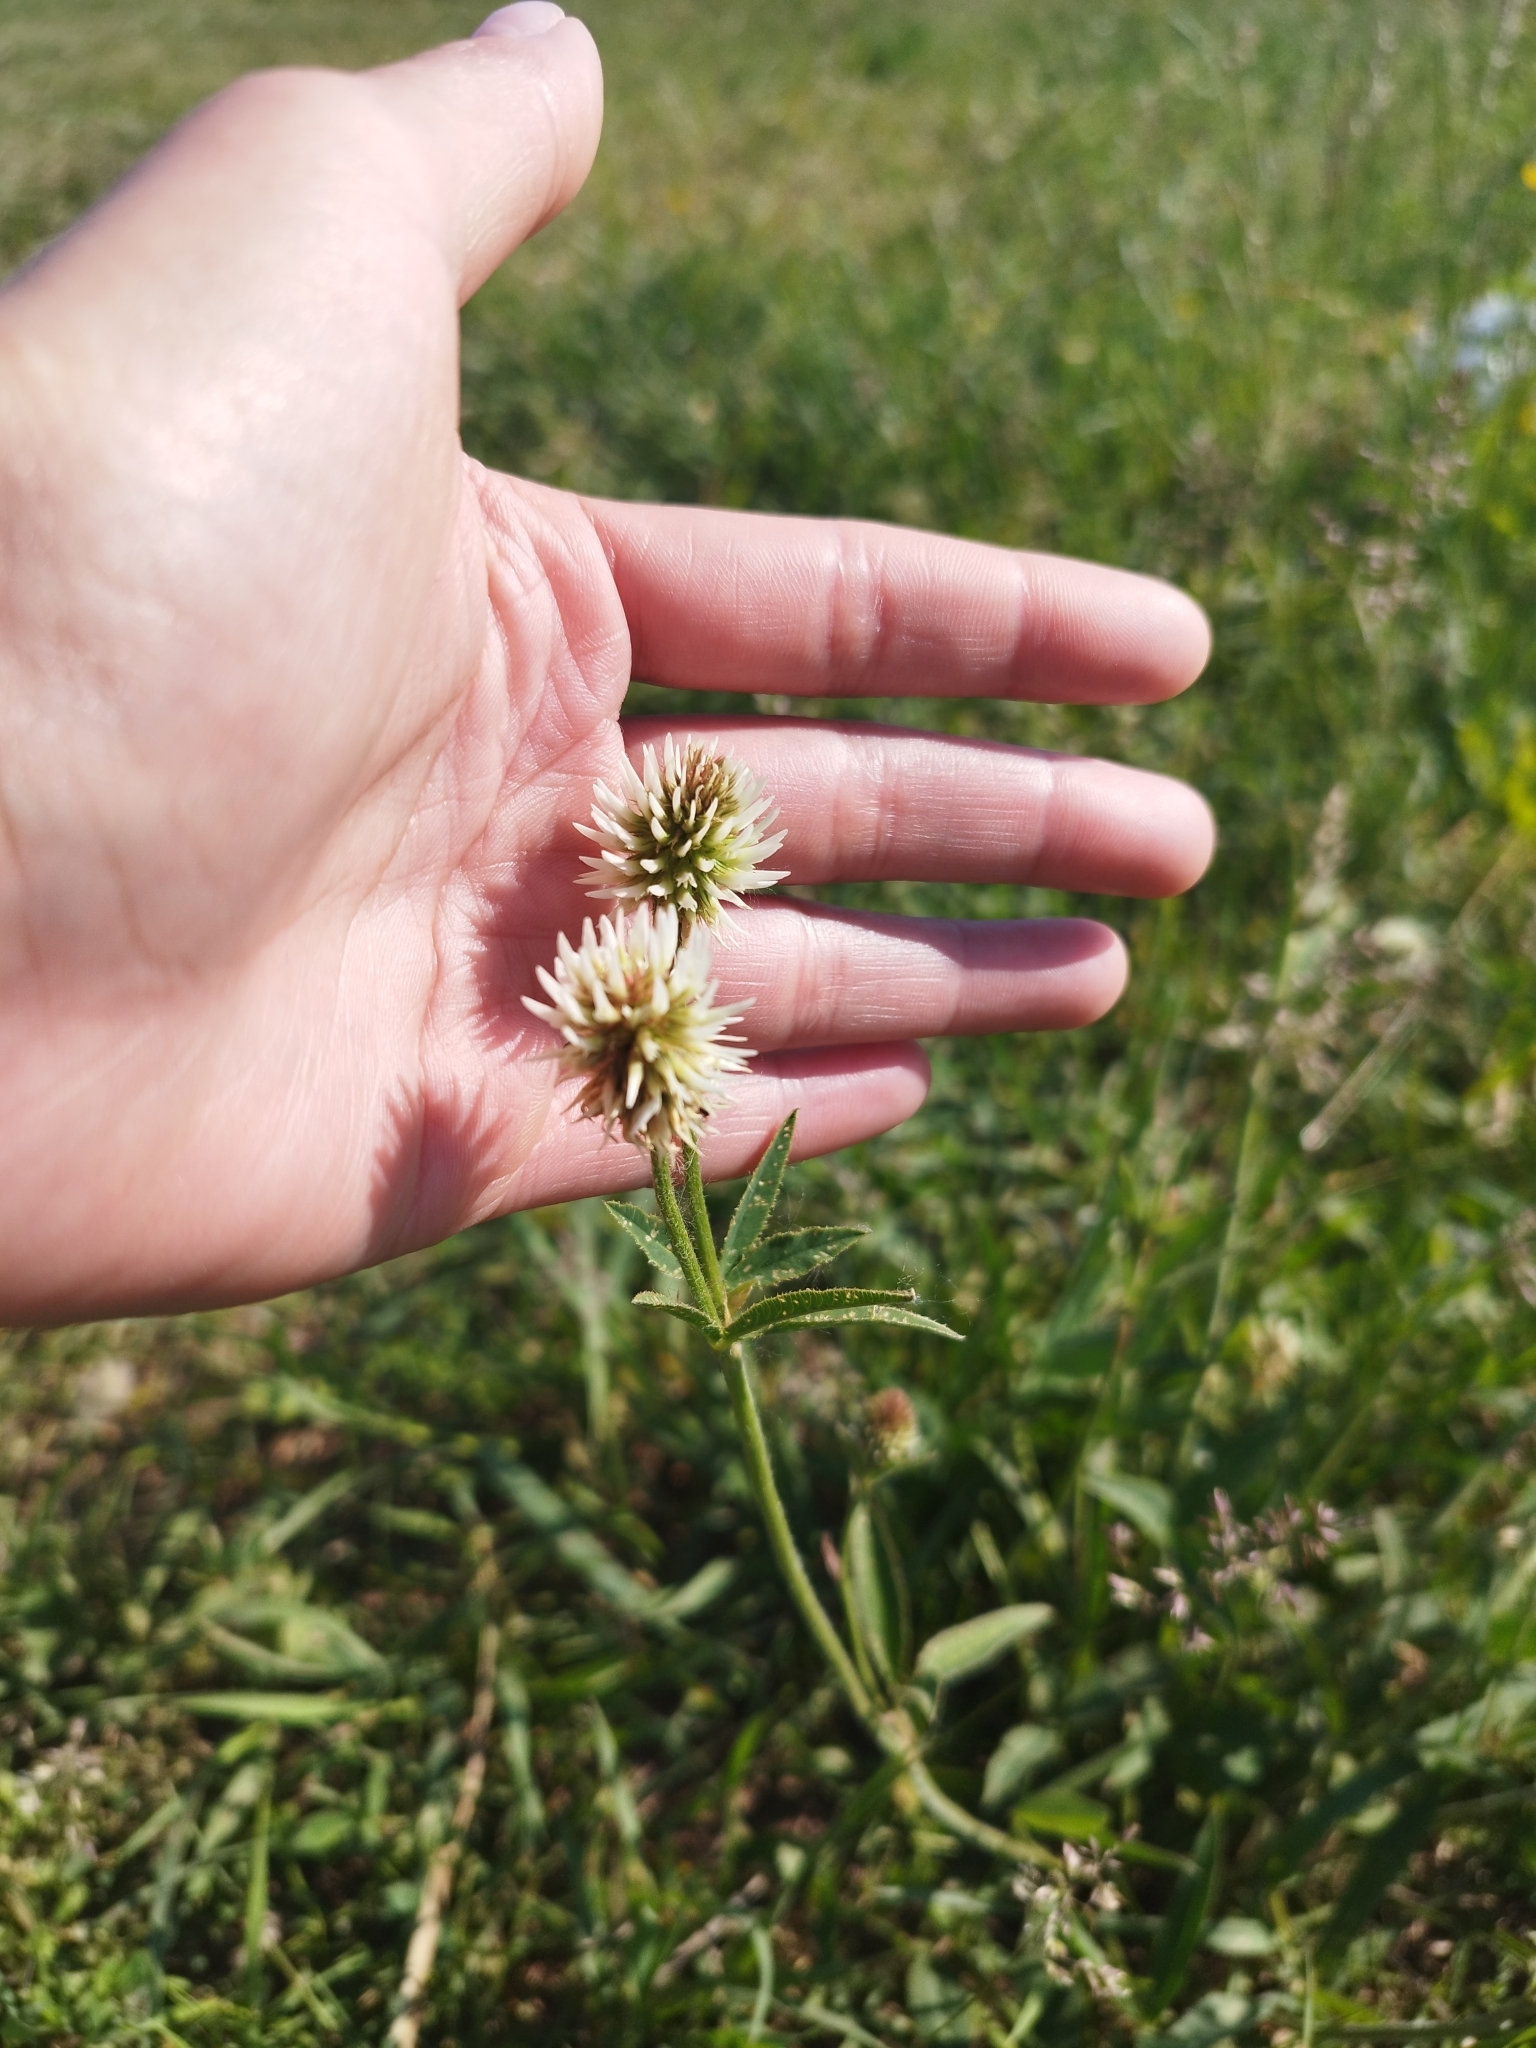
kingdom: Plantae
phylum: Tracheophyta
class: Magnoliopsida
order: Fabales
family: Fabaceae
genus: Trifolium
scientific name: Trifolium montanum
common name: Mountain clover
